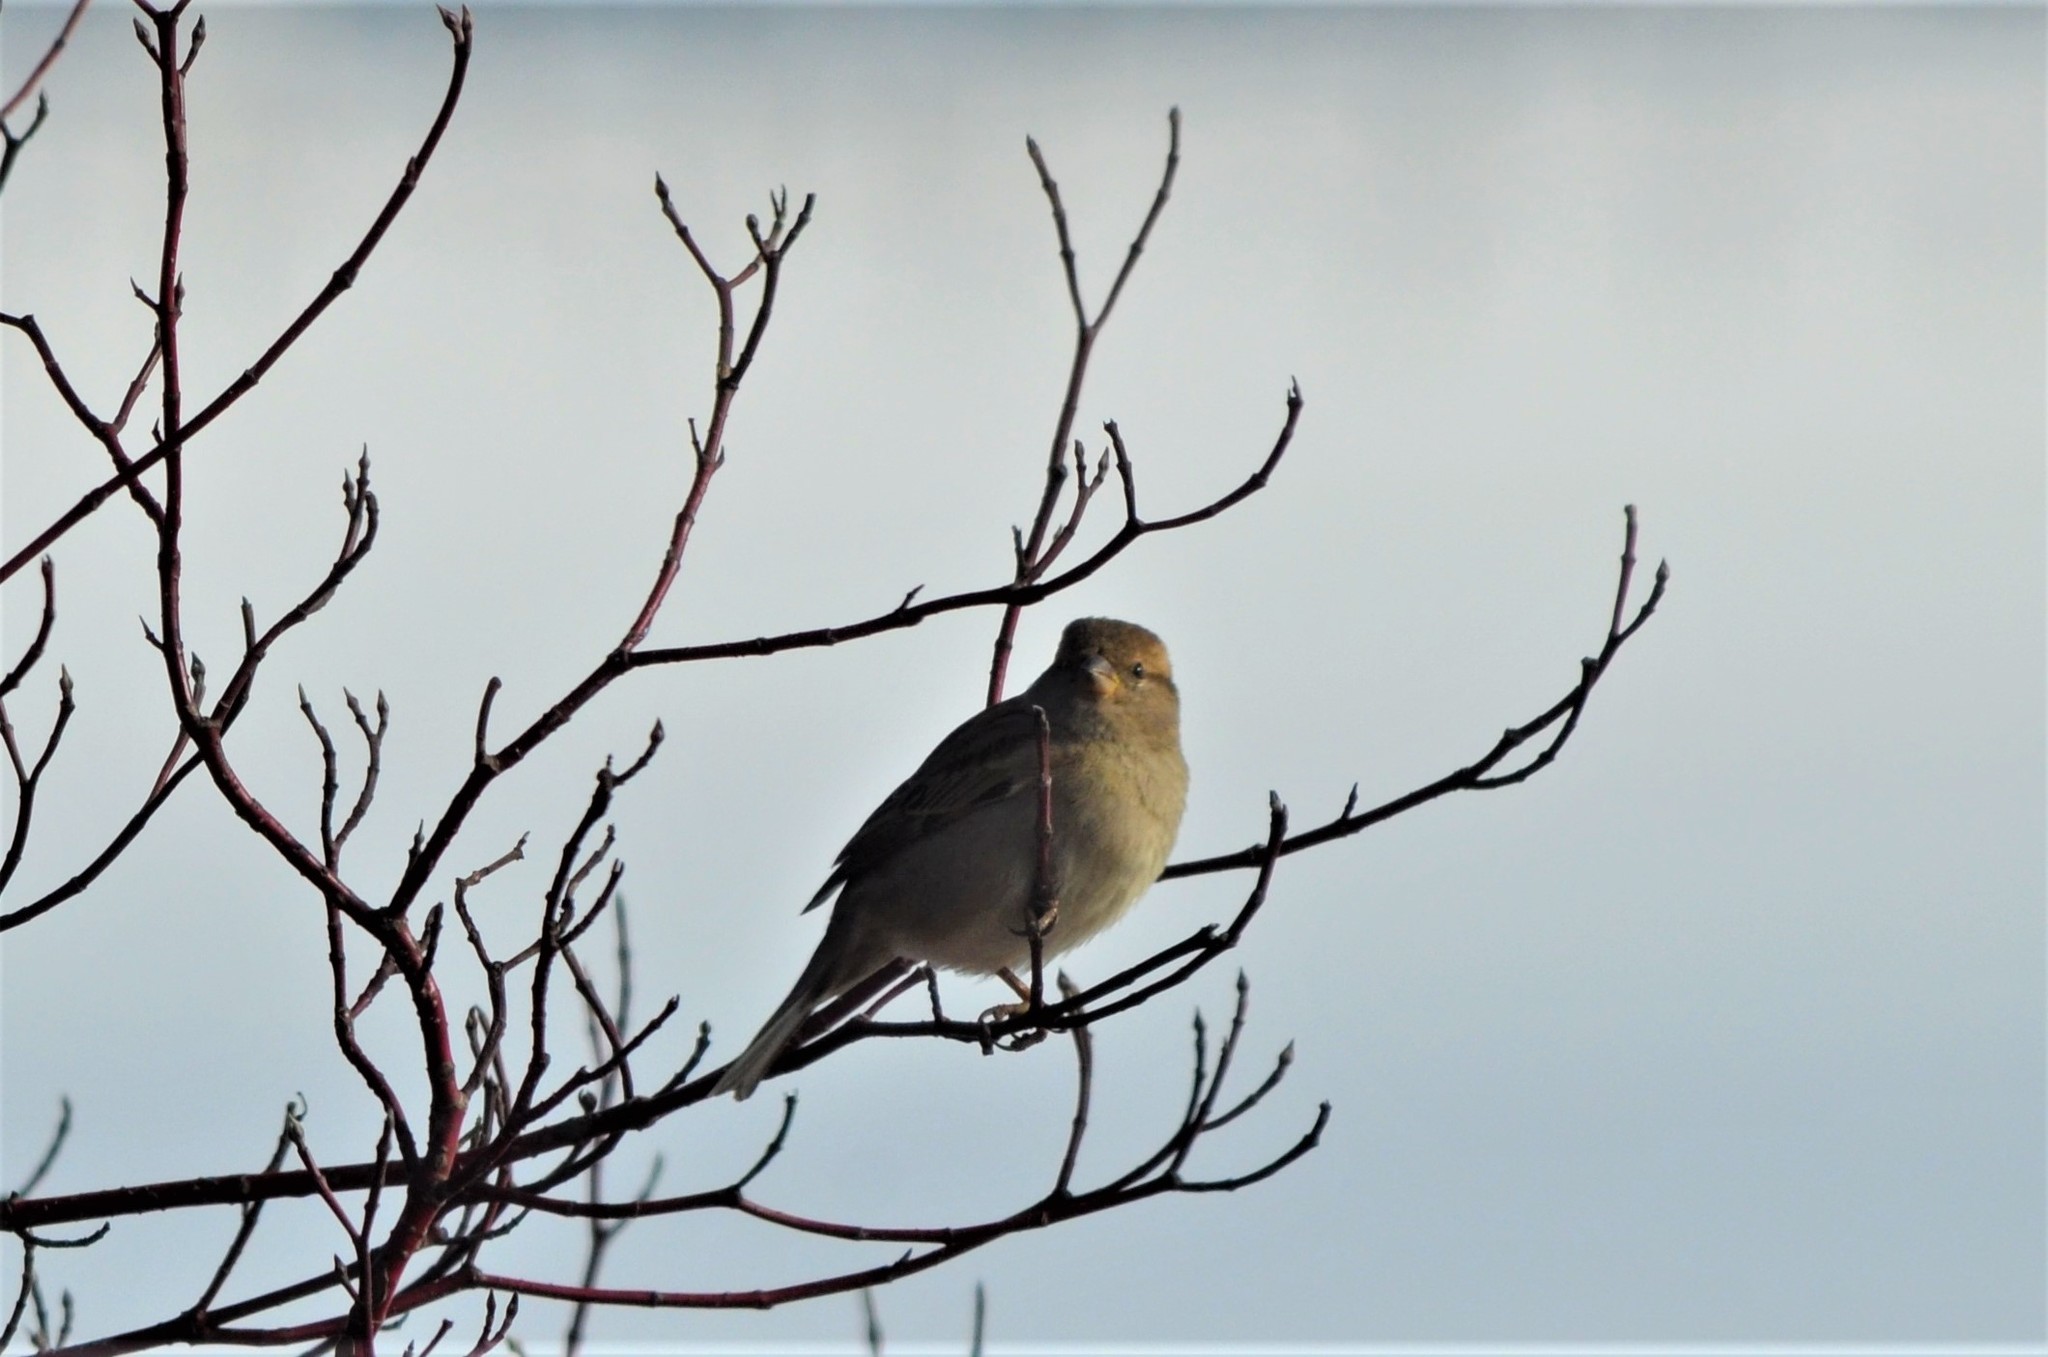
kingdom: Animalia
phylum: Chordata
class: Aves
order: Passeriformes
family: Passeridae
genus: Passer
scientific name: Passer domesticus
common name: House sparrow
